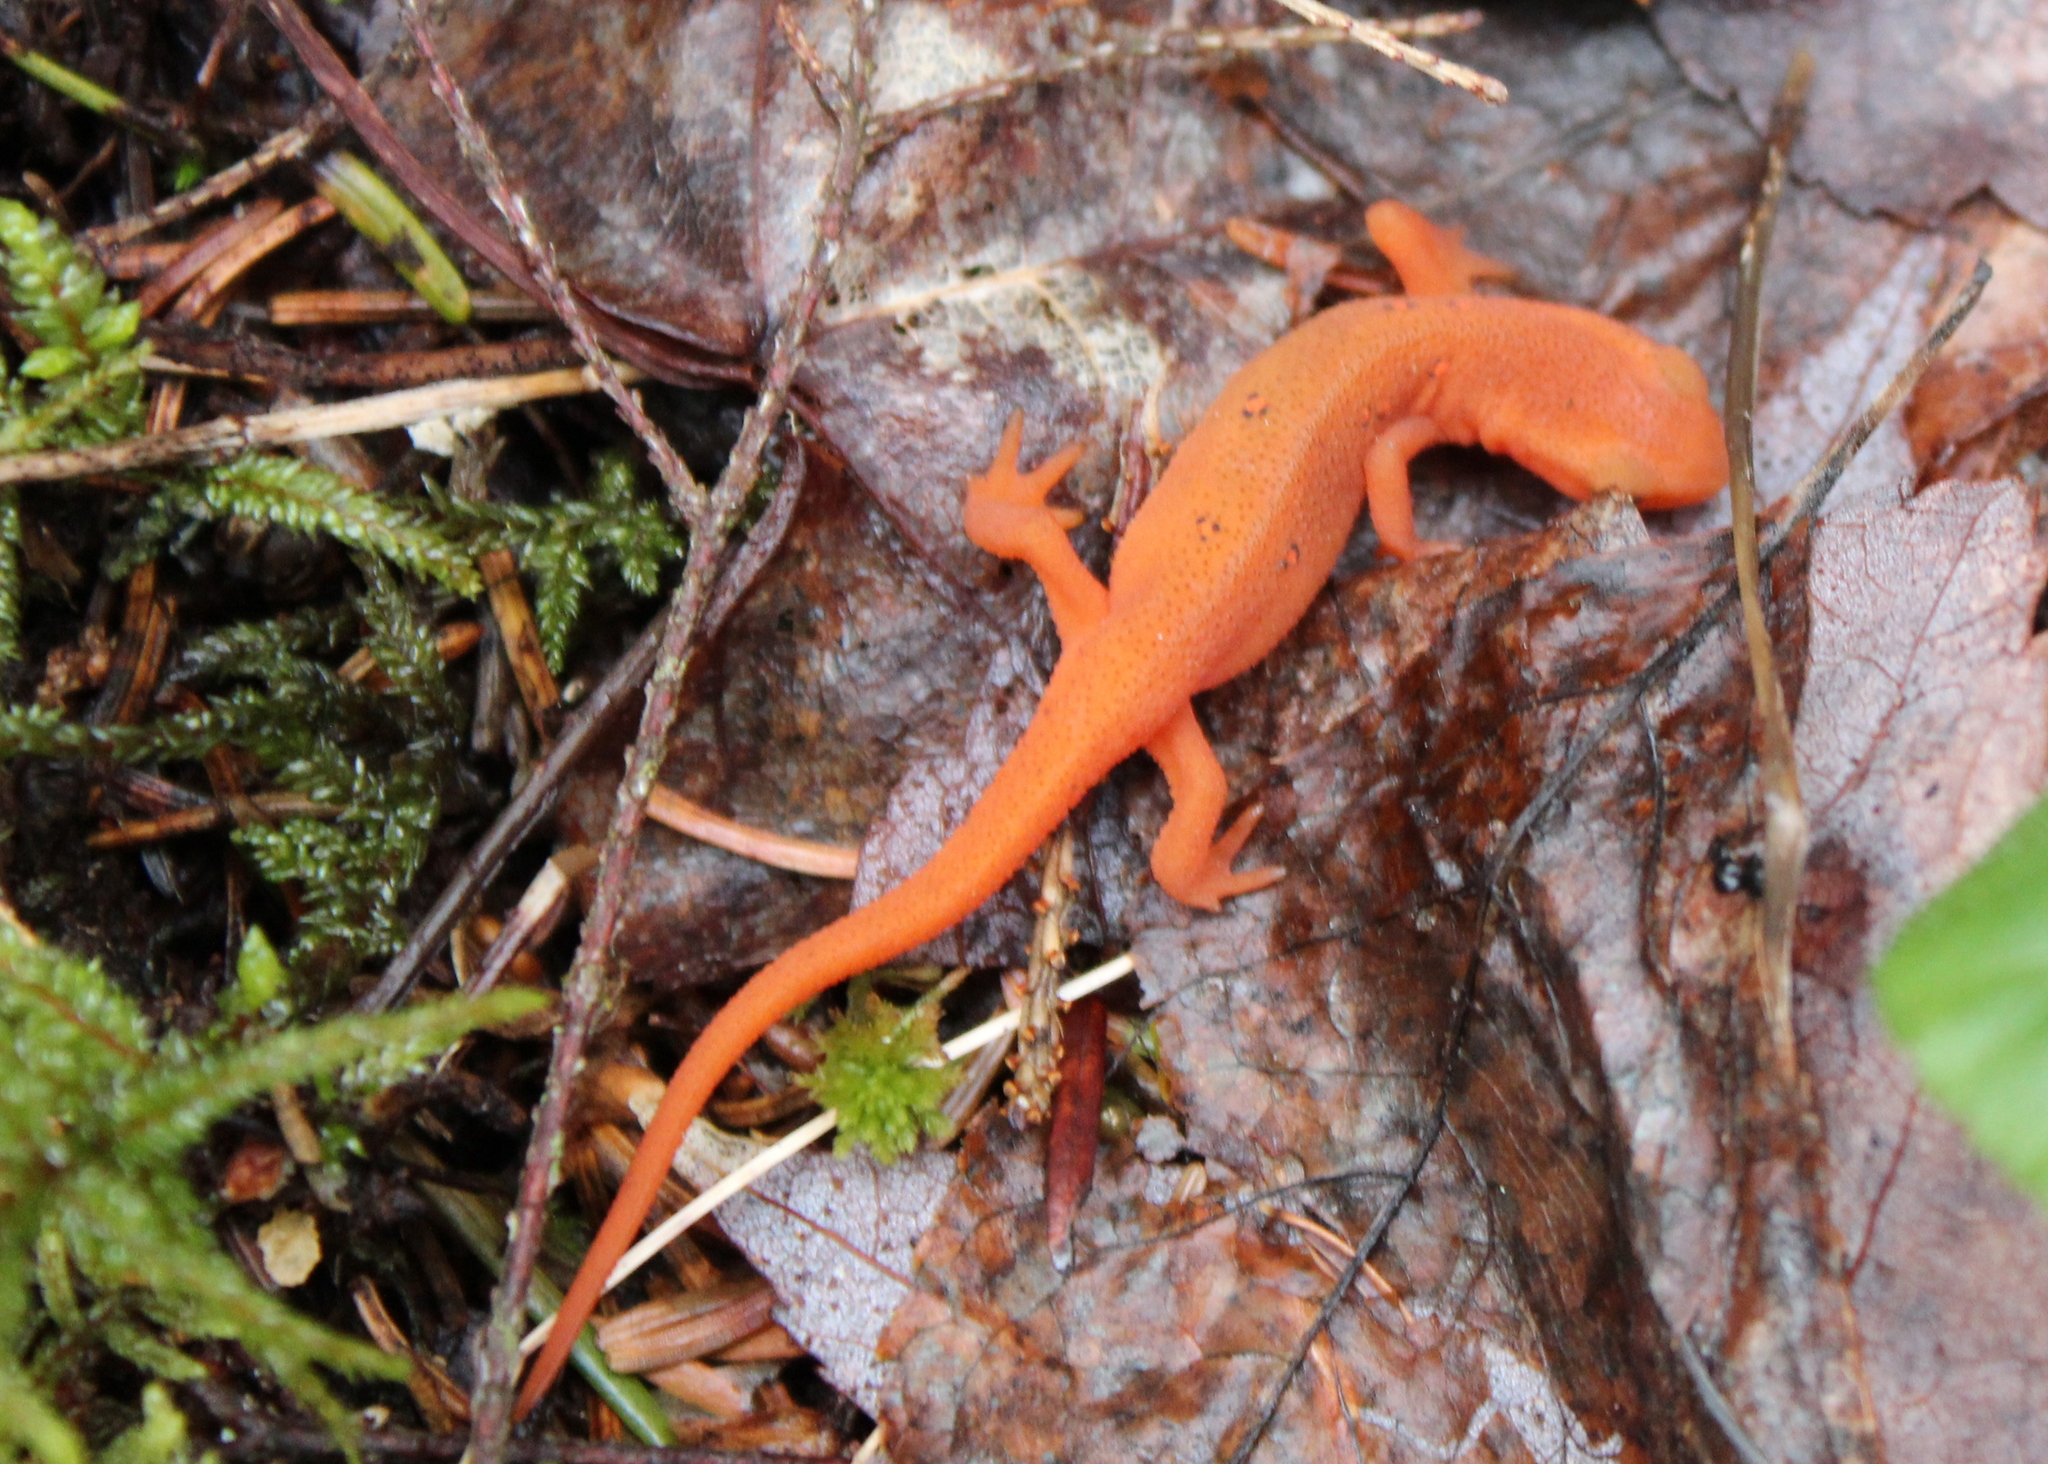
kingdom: Animalia
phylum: Chordata
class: Amphibia
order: Caudata
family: Salamandridae
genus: Notophthalmus
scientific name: Notophthalmus viridescens
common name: Eastern newt
